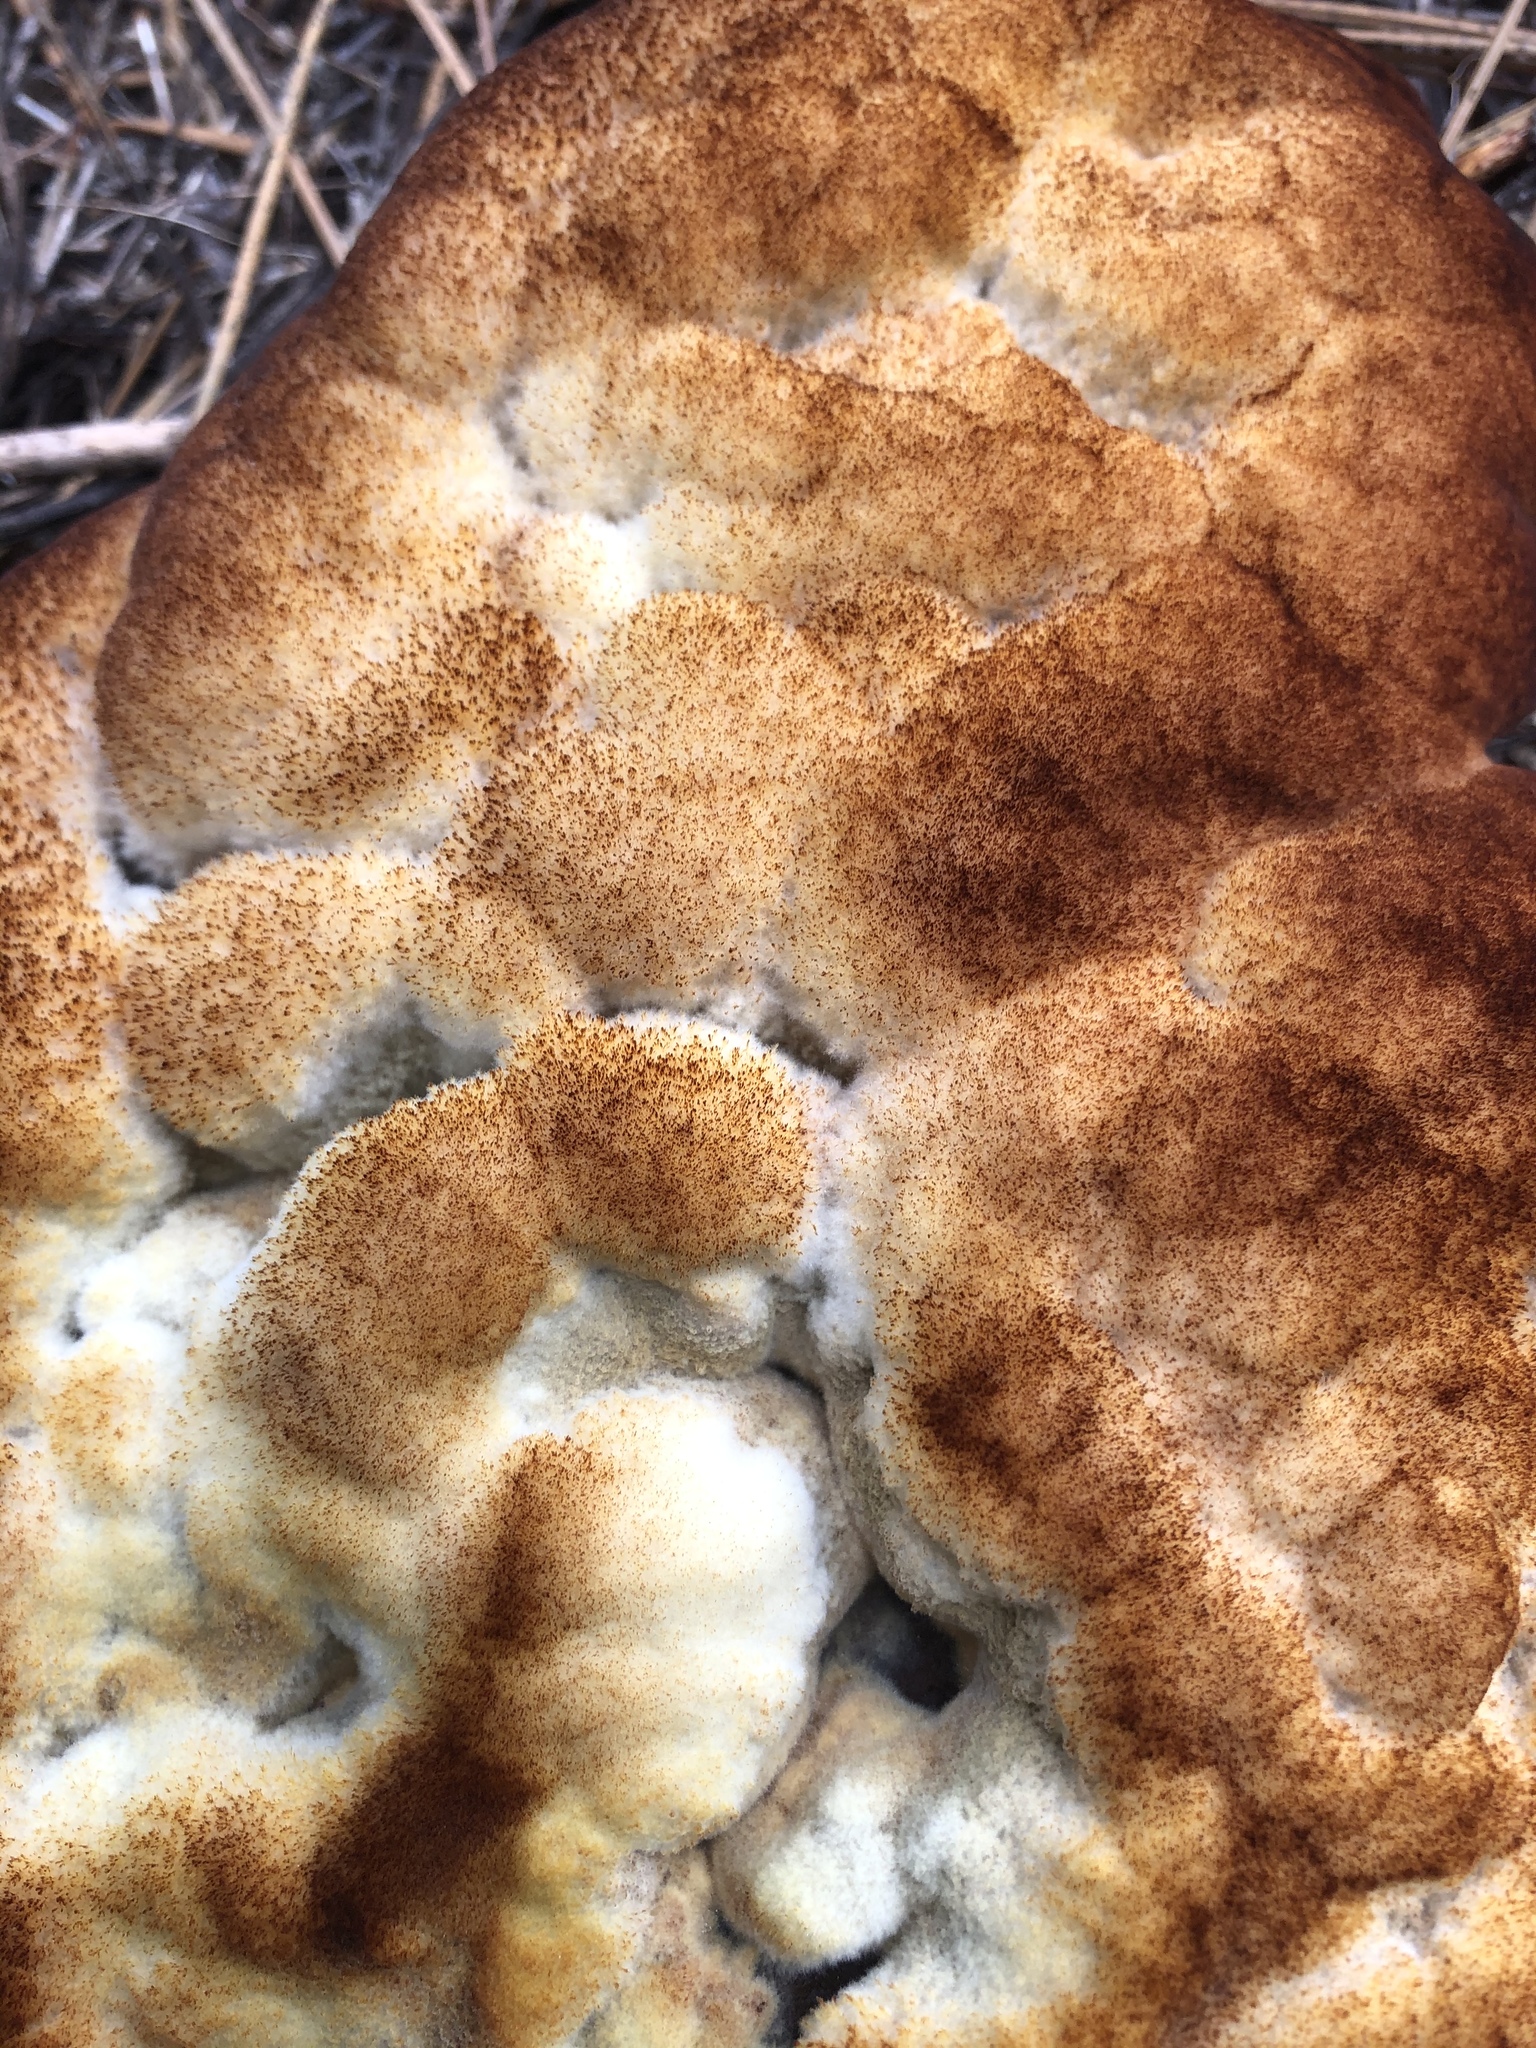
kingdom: Fungi
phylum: Basidiomycota
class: Agaricomycetes
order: Polyporales
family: Laetiporaceae
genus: Phaeolus
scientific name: Phaeolus schweinitzii
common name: Dyer's mazegill
